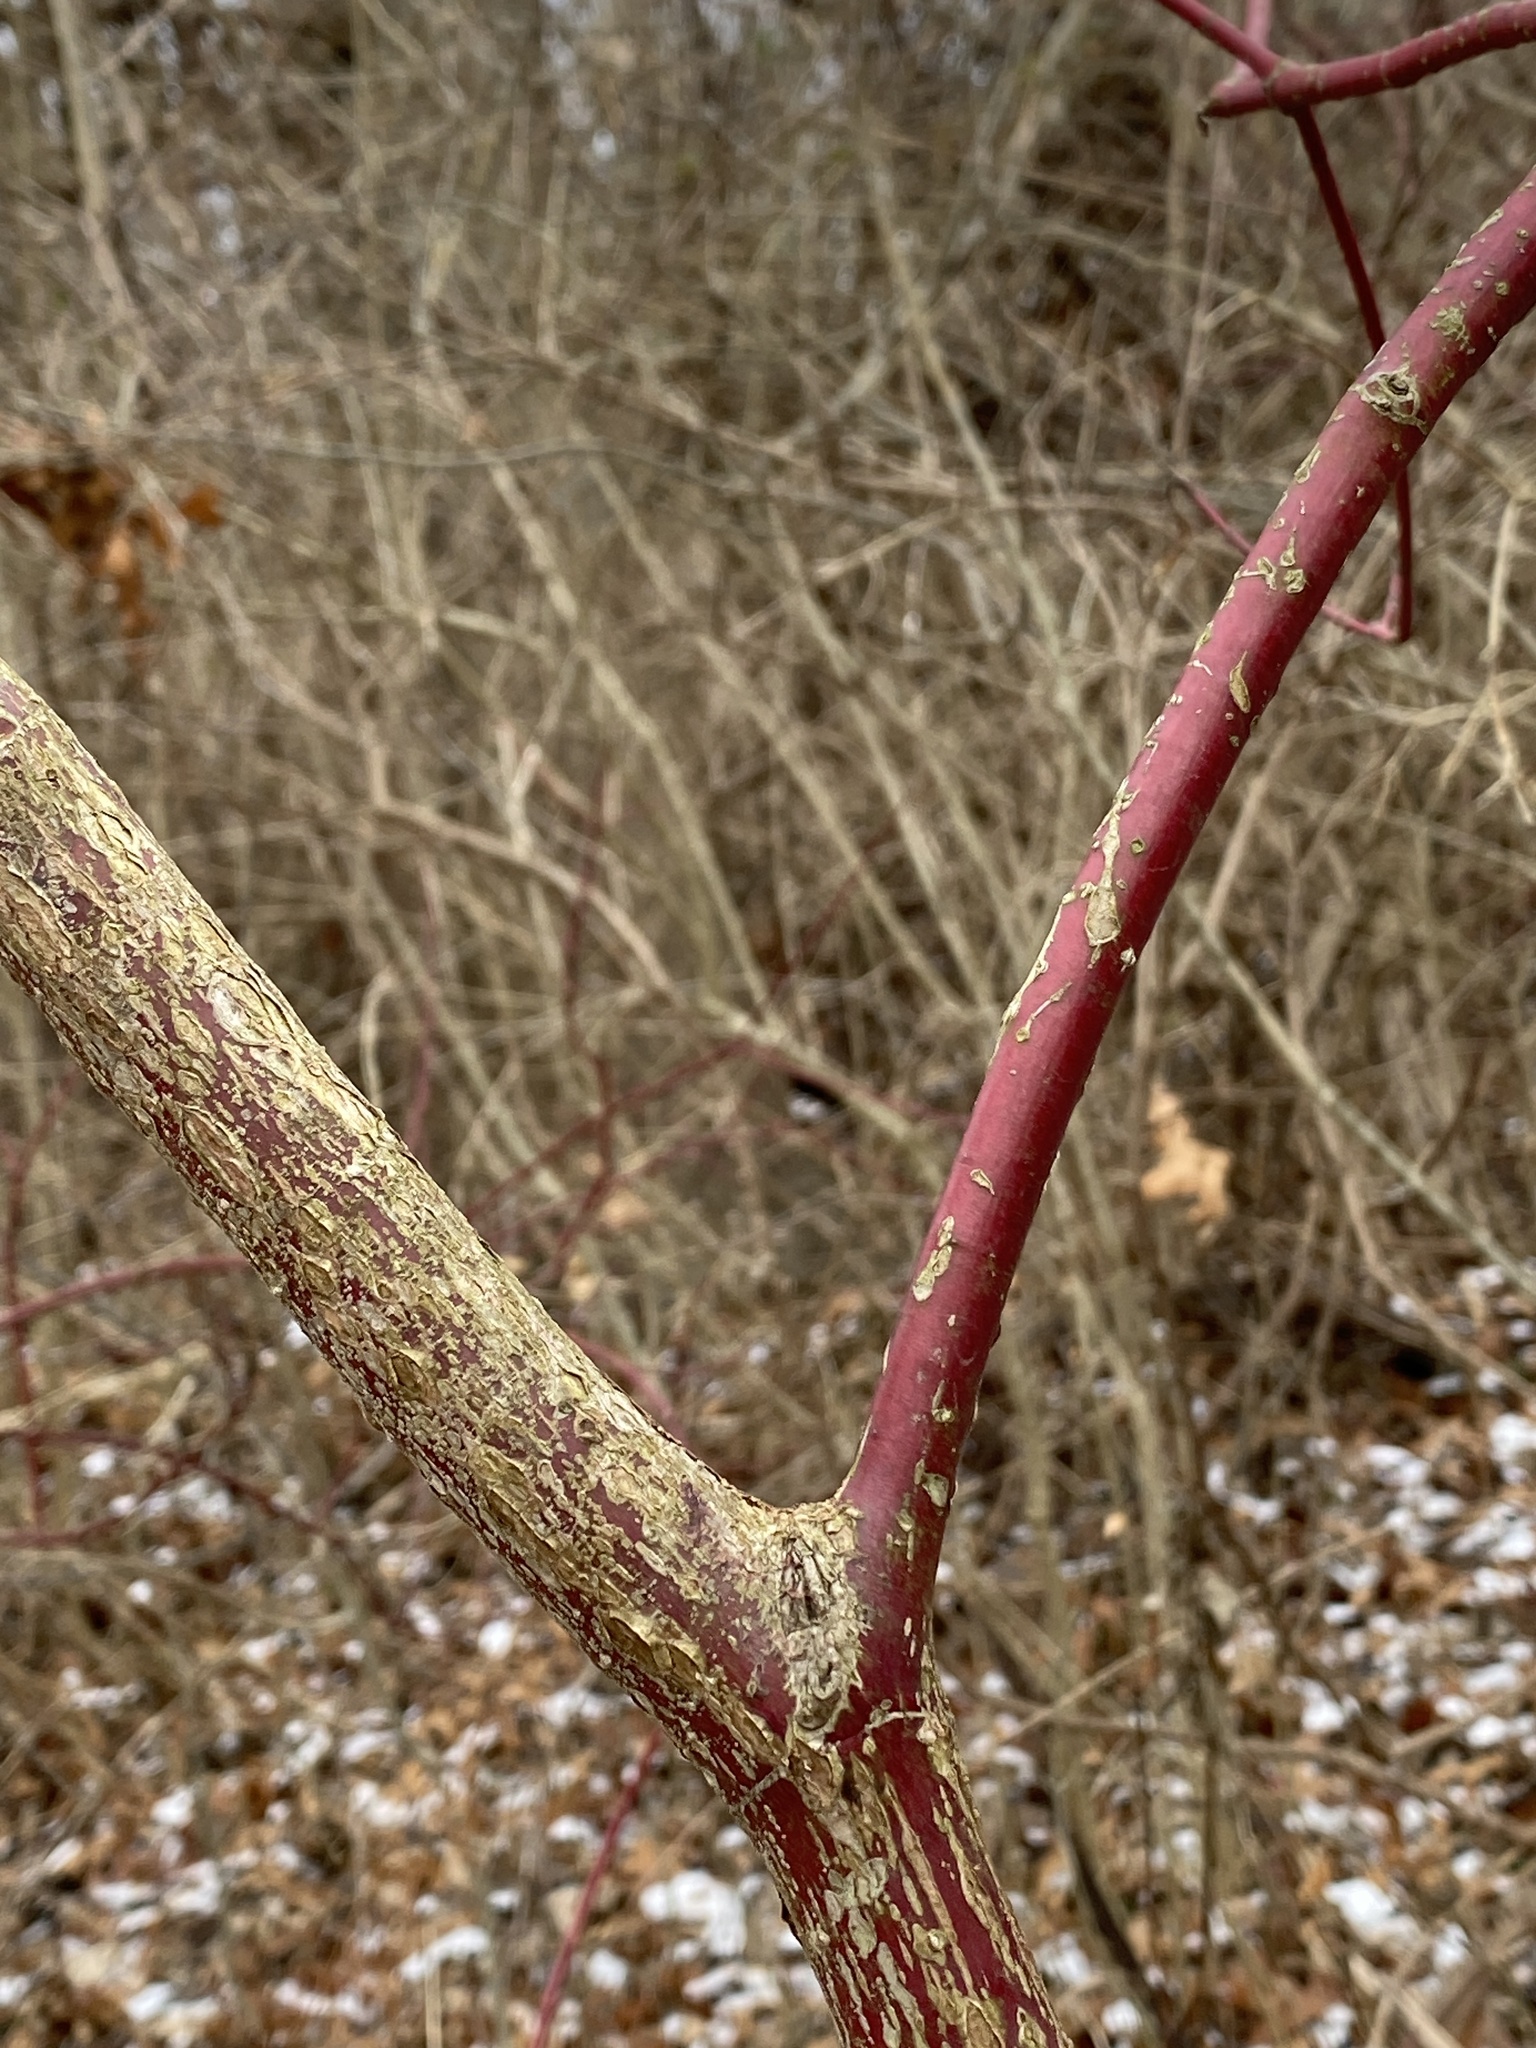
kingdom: Plantae
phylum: Tracheophyta
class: Magnoliopsida
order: Cornales
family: Cornaceae
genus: Cornus
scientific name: Cornus amomum
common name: Silky dogwood
